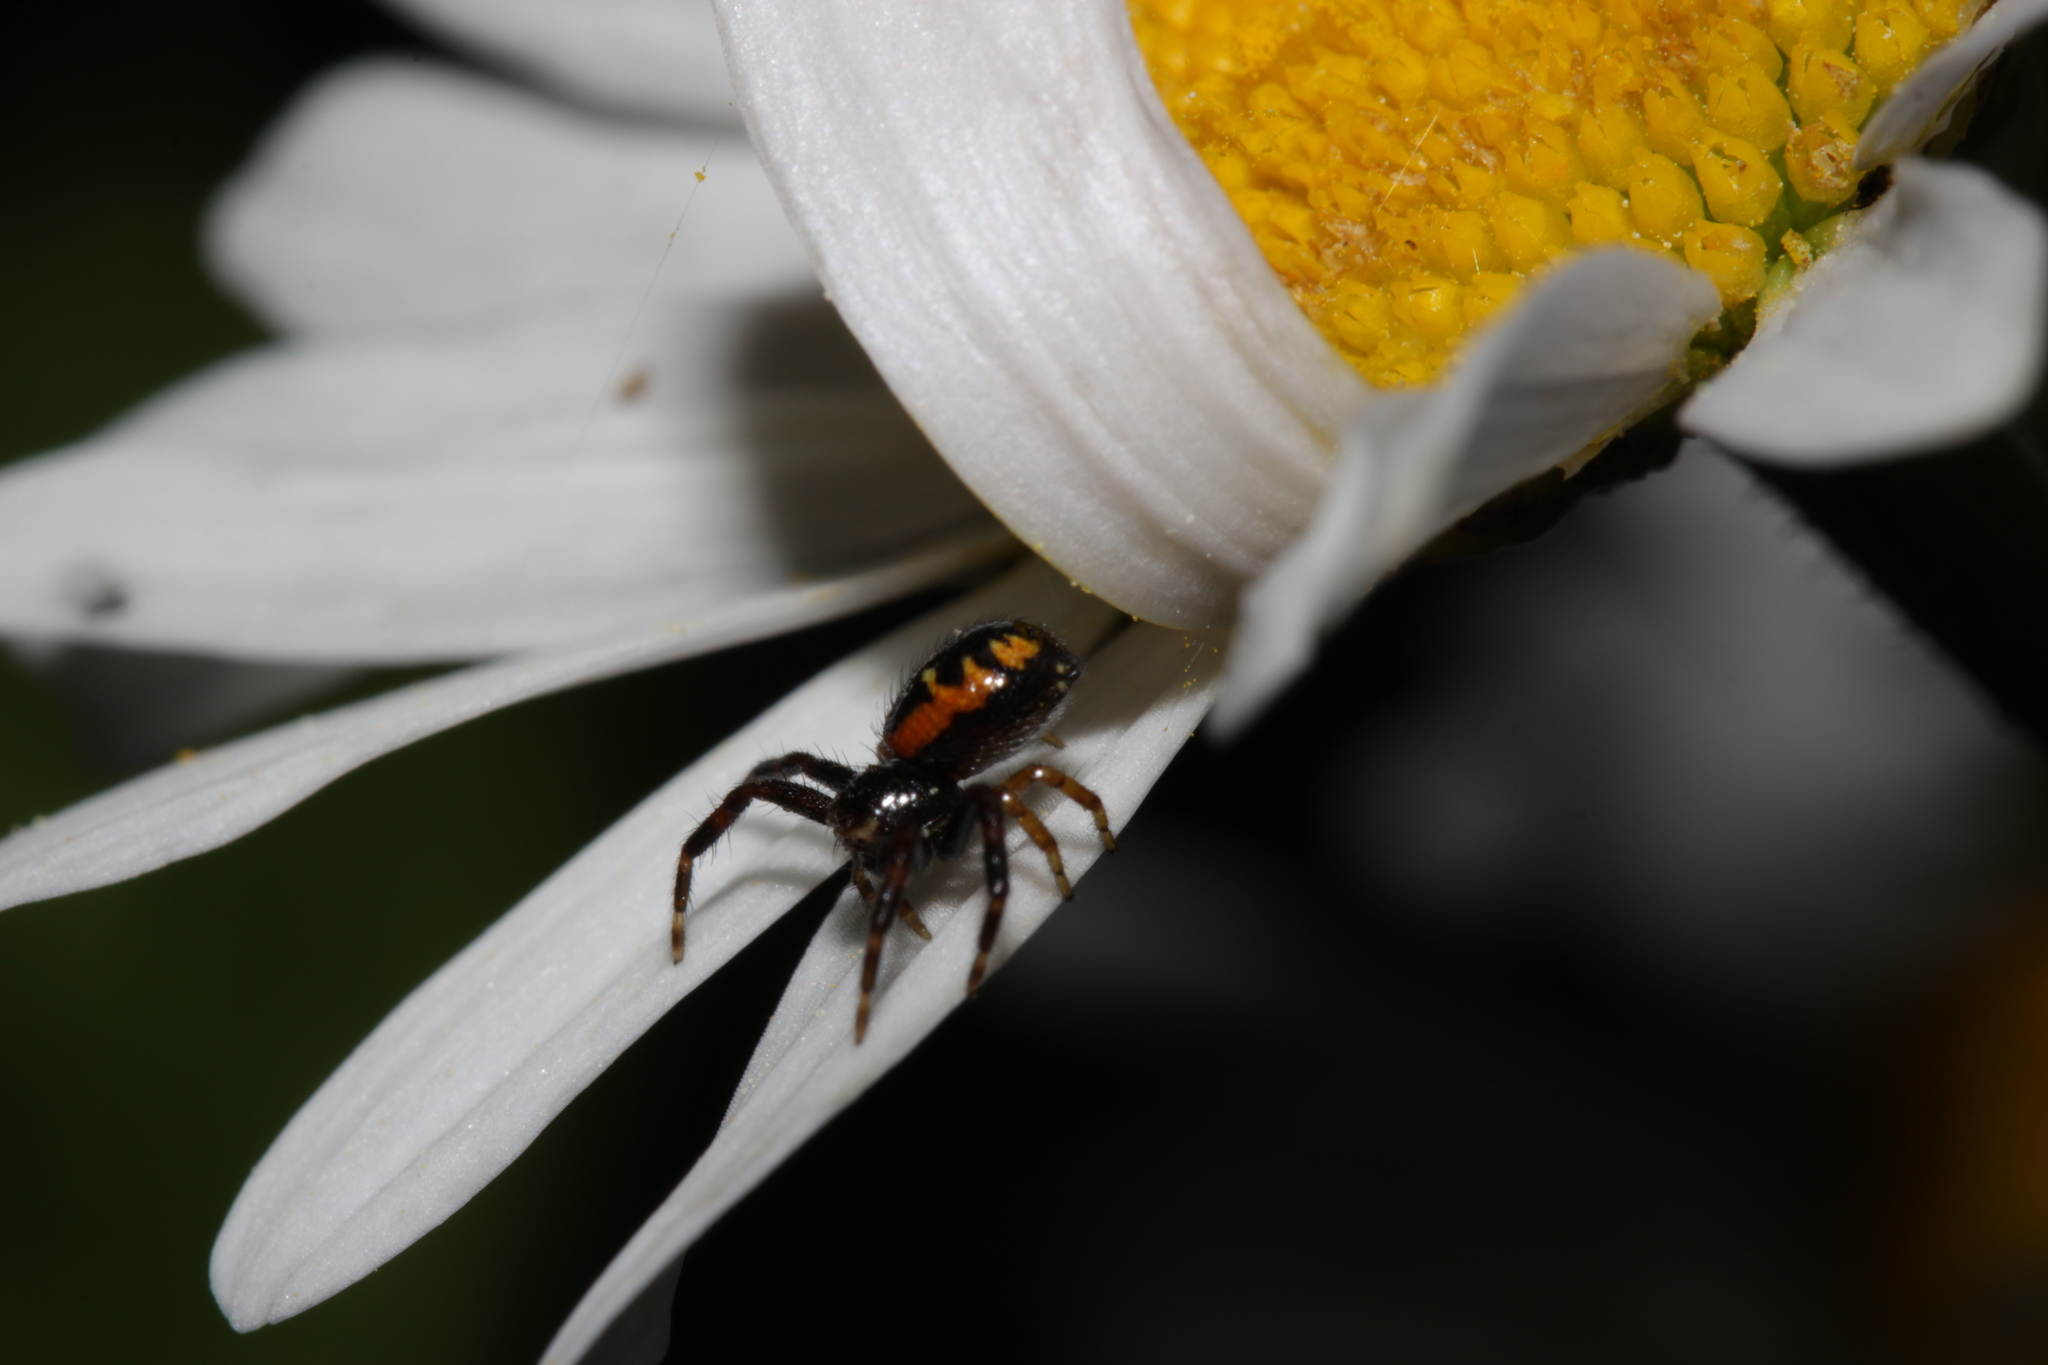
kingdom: Animalia
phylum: Arthropoda
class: Arachnida
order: Araneae
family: Thomisidae
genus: Synema
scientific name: Synema globosum
